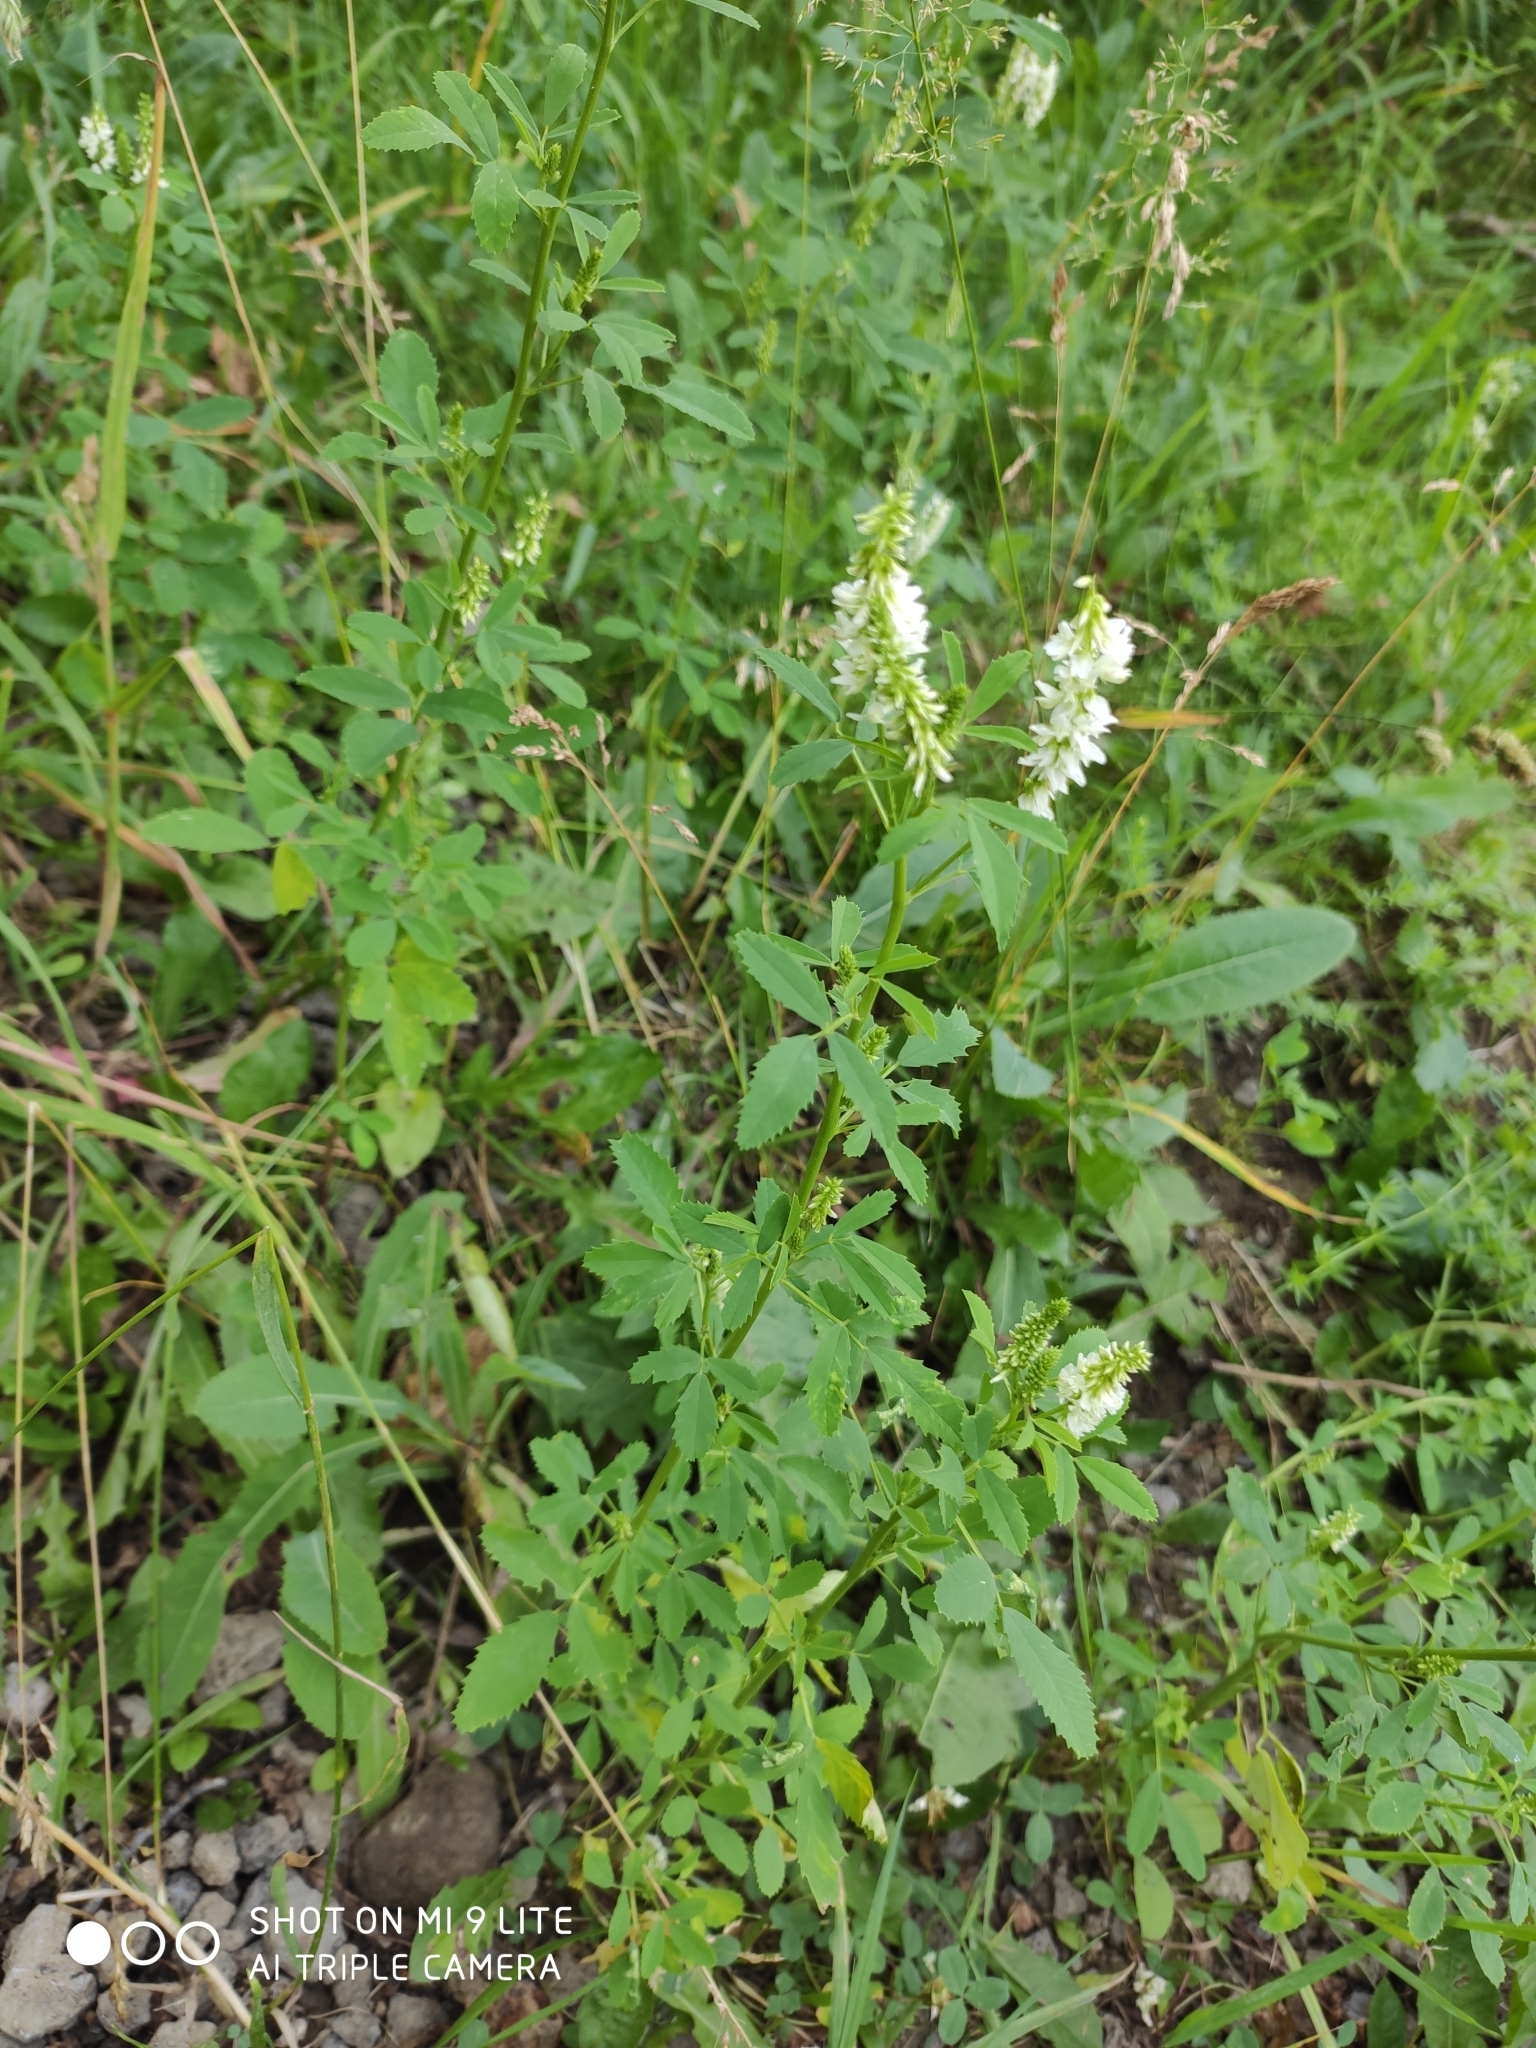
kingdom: Plantae
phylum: Tracheophyta
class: Magnoliopsida
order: Fabales
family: Fabaceae
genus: Melilotus
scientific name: Melilotus albus
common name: White melilot
